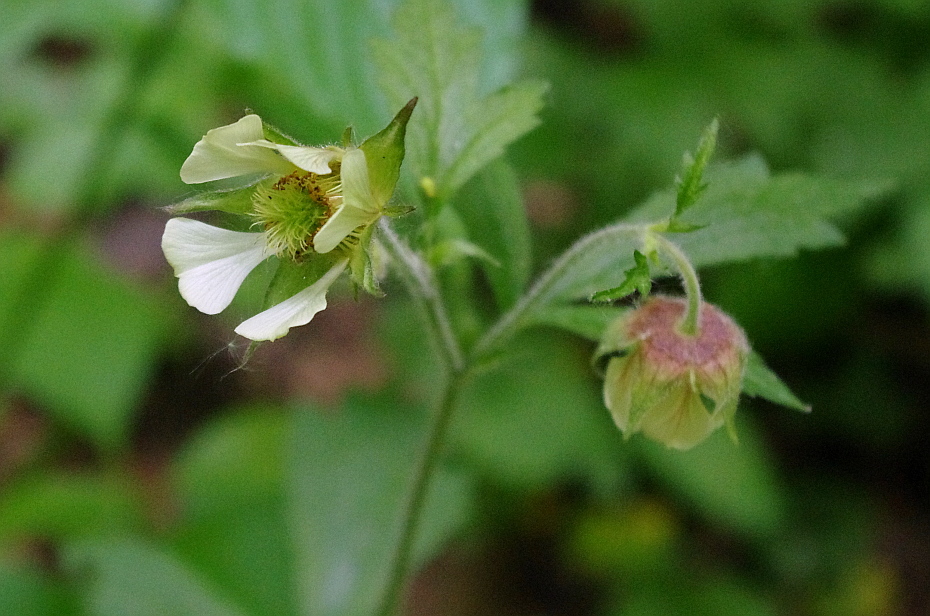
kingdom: Plantae
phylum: Tracheophyta
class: Magnoliopsida
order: Rosales
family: Rosaceae
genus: Geum
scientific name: Geum rivale
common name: Water avens
